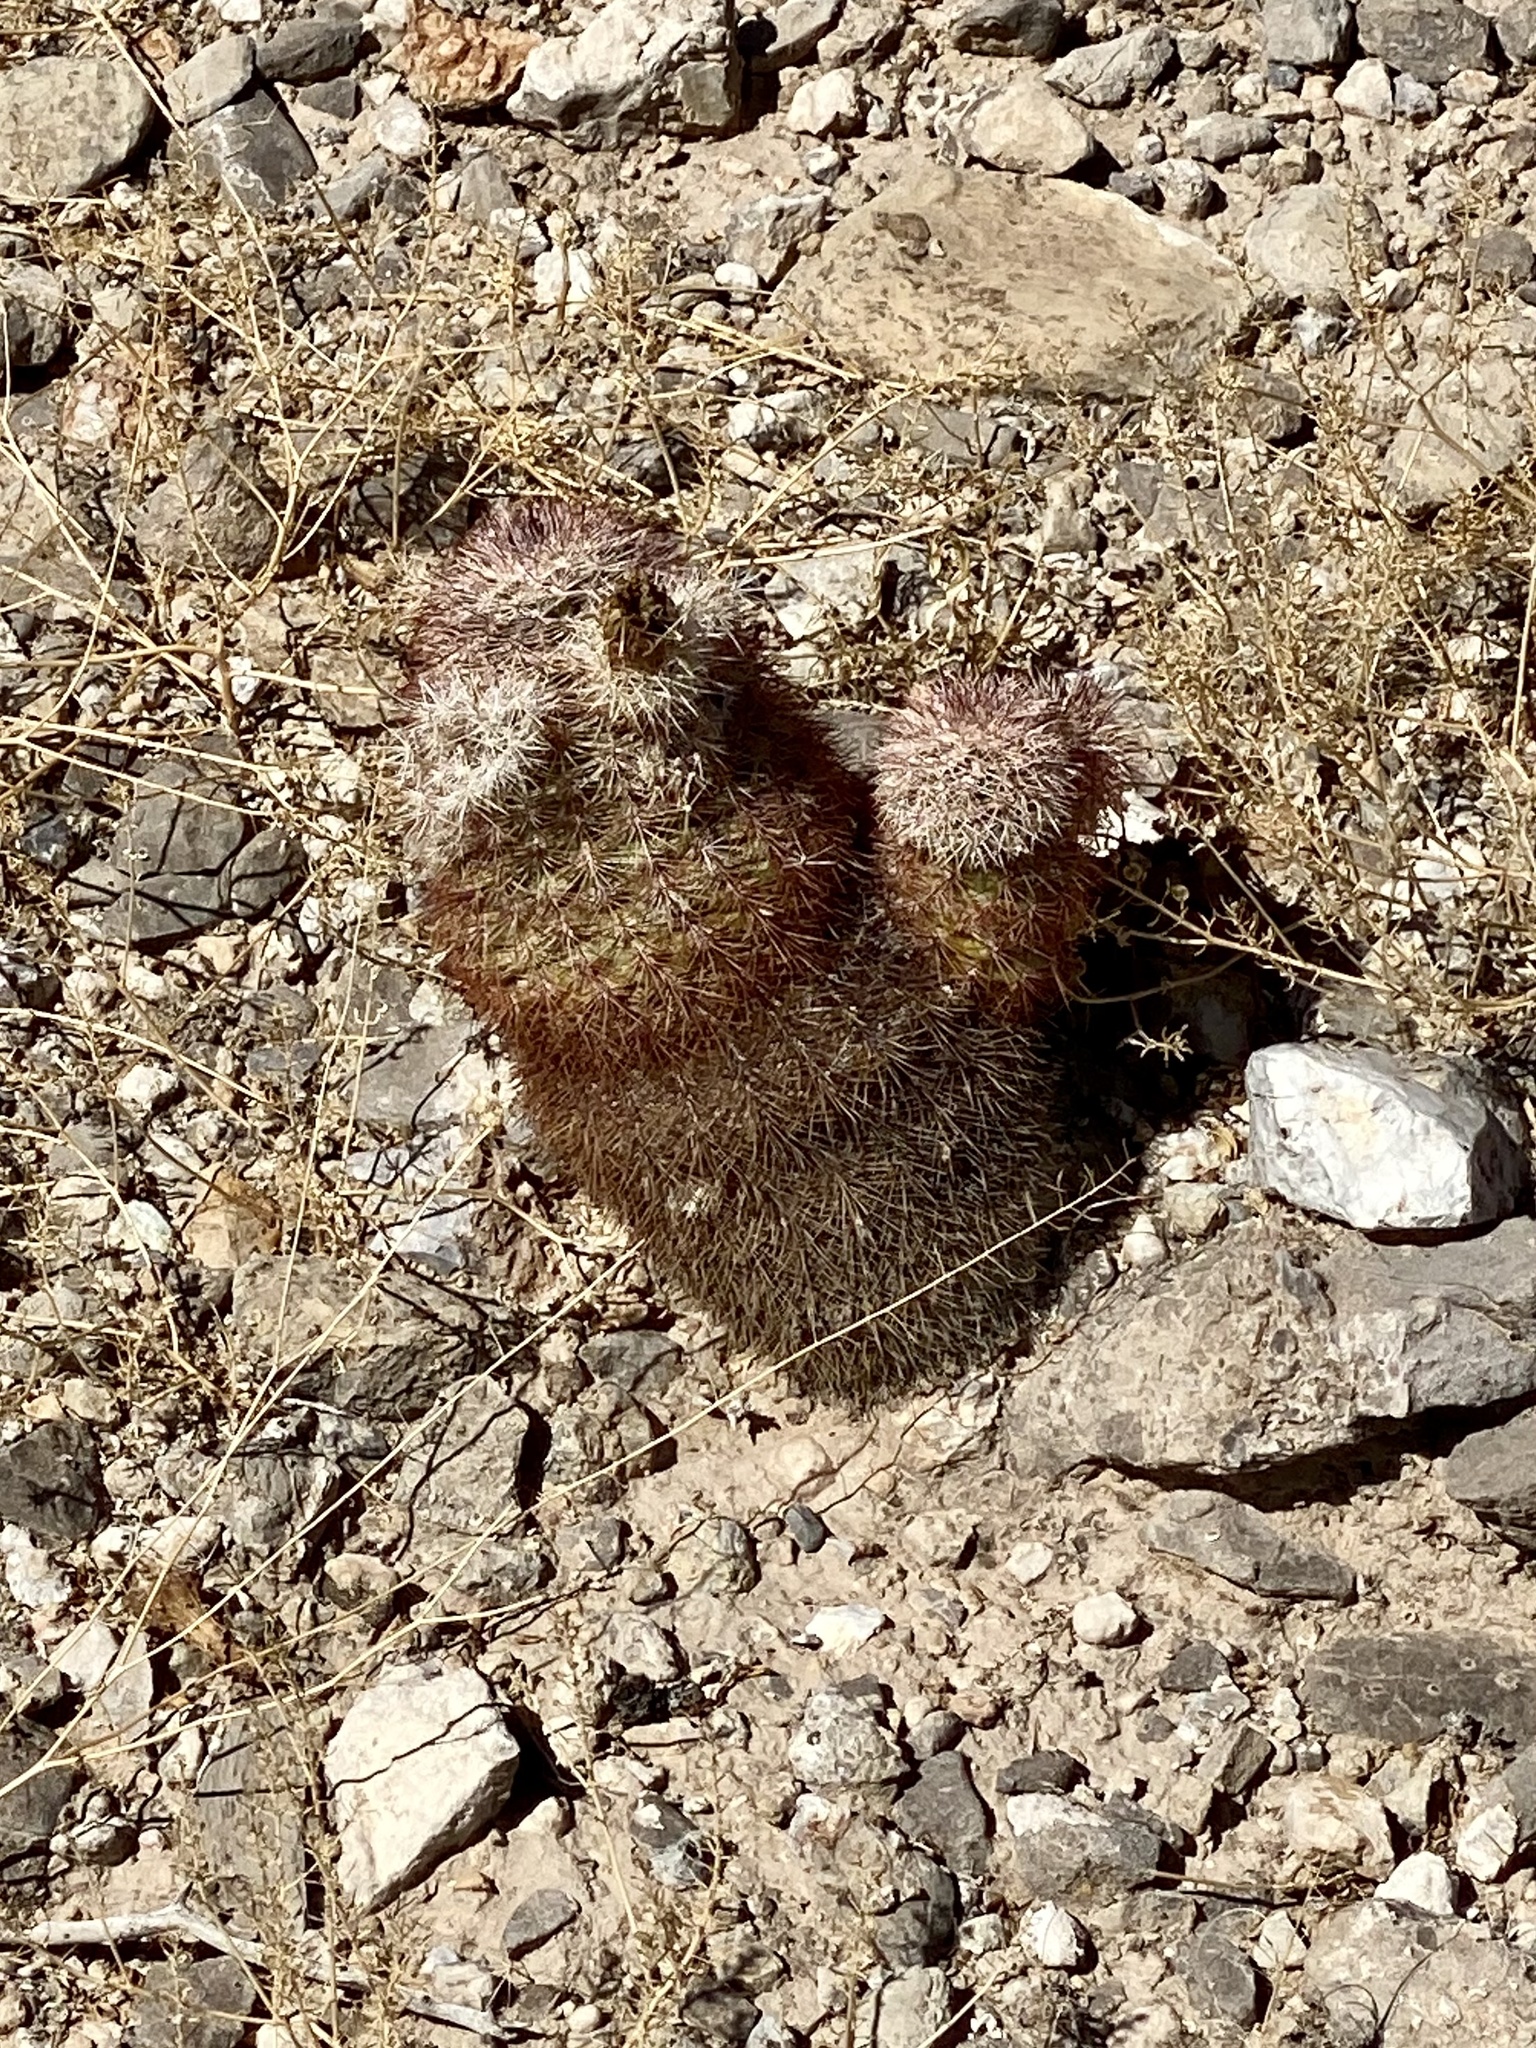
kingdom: Plantae
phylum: Tracheophyta
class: Magnoliopsida
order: Caryophyllales
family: Cactaceae
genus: Echinocereus
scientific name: Echinocereus dasyacanthus
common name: Spiny hedgehog cactus
